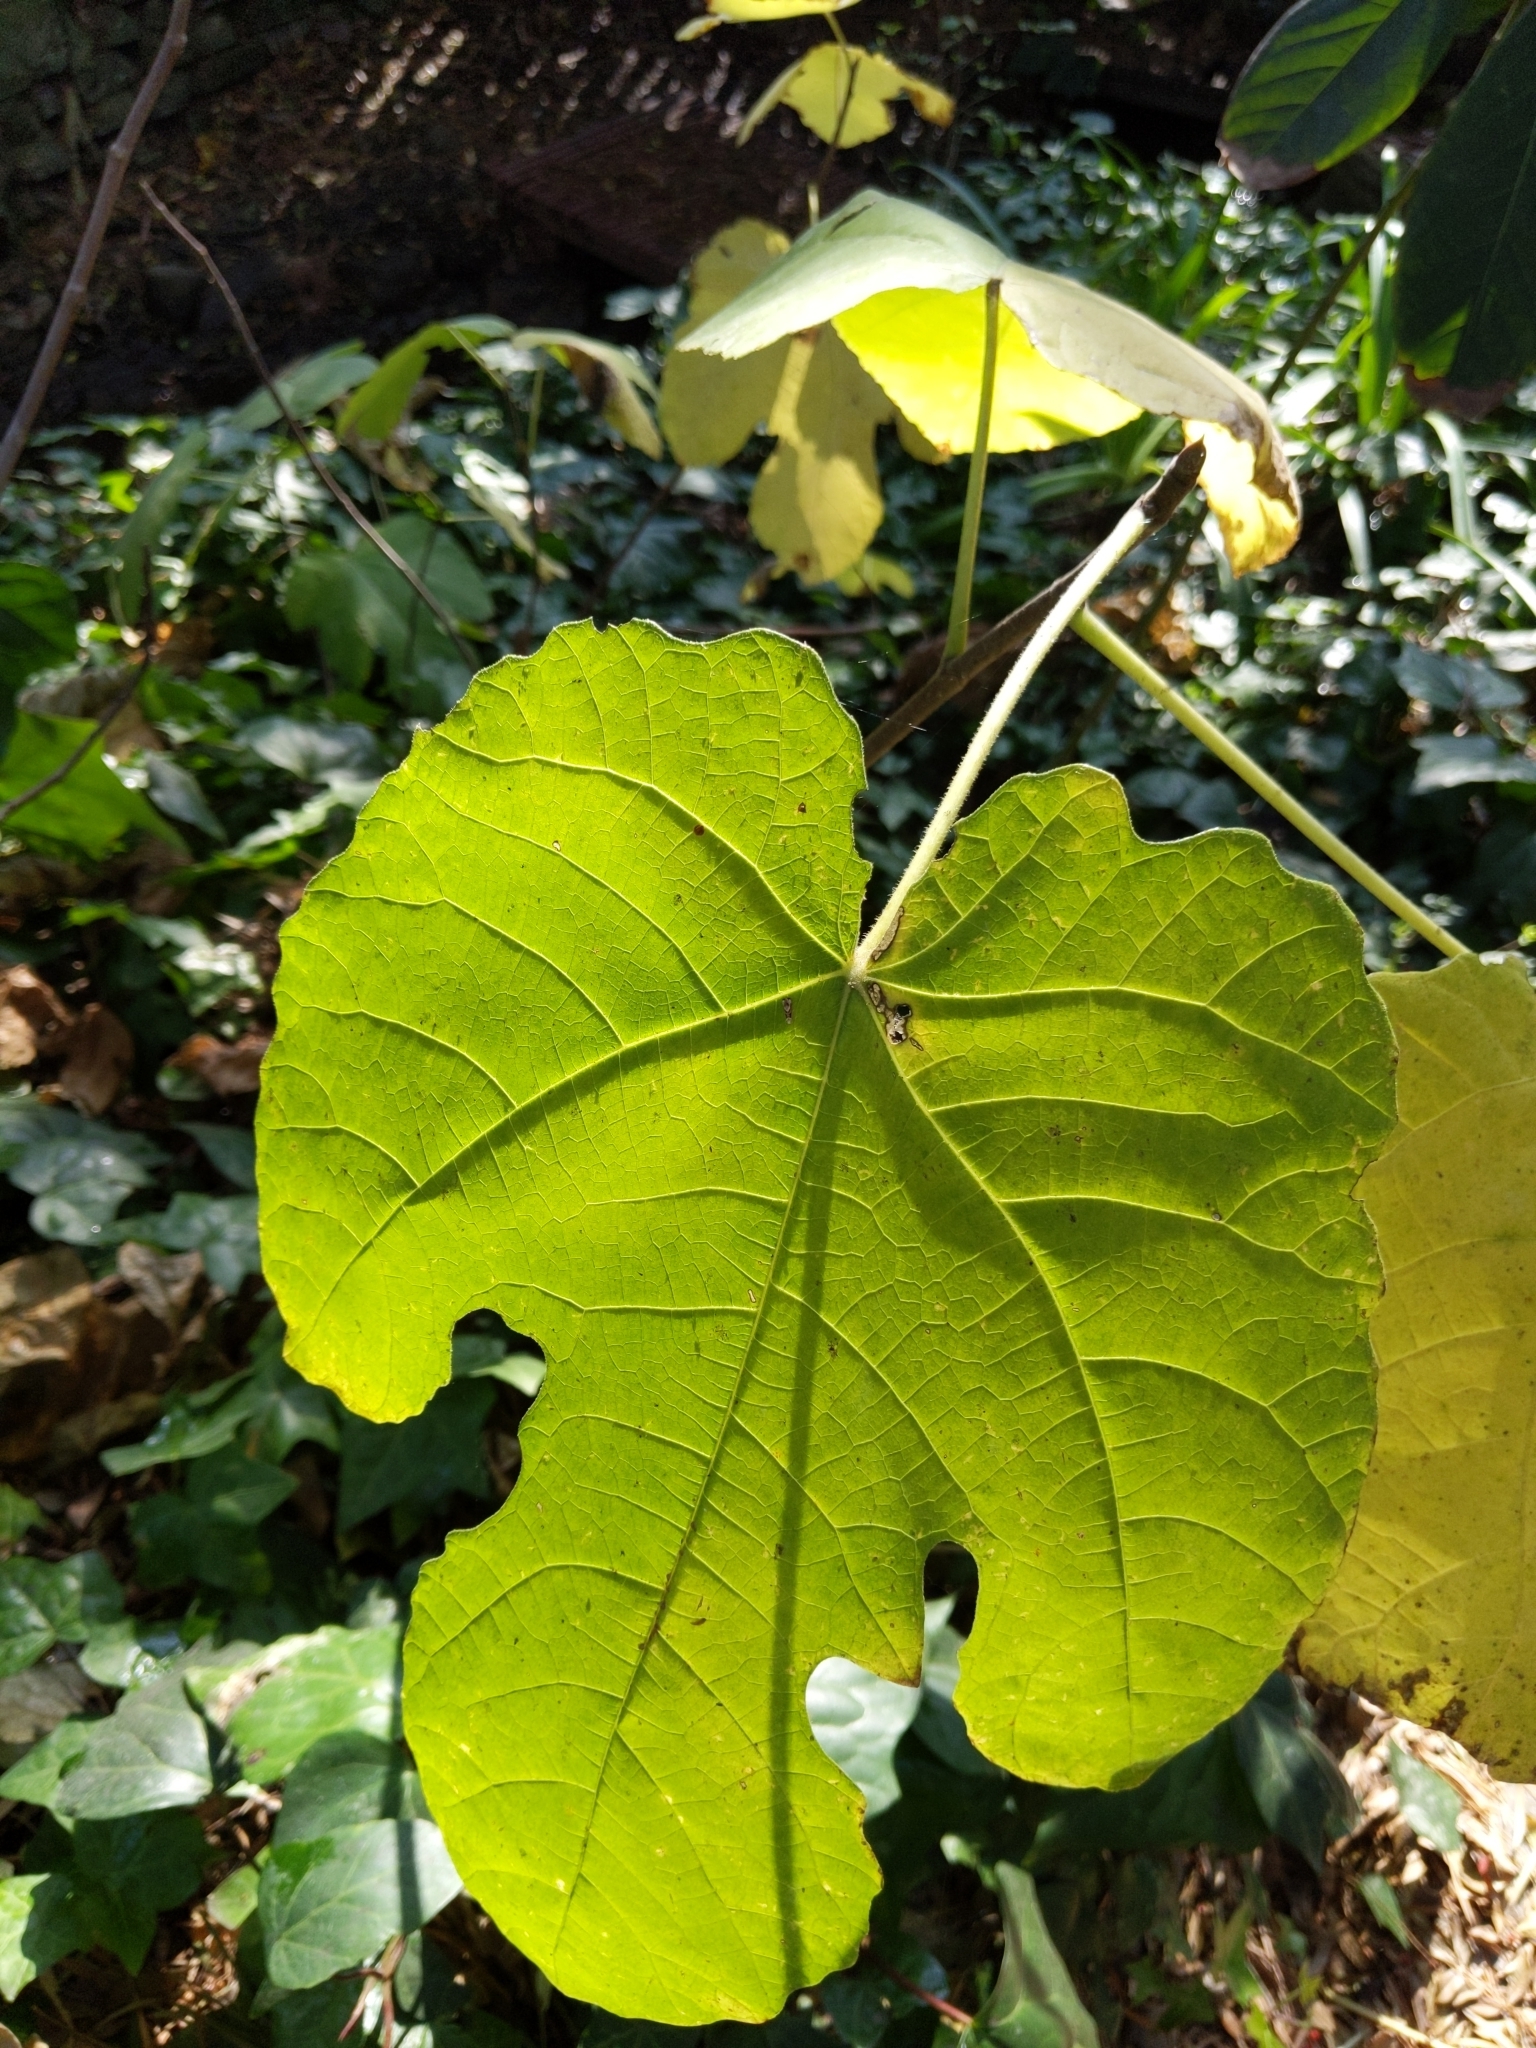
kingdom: Plantae
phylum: Tracheophyta
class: Magnoliopsida
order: Rosales
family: Moraceae
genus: Ficus
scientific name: Ficus carica
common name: Fig
